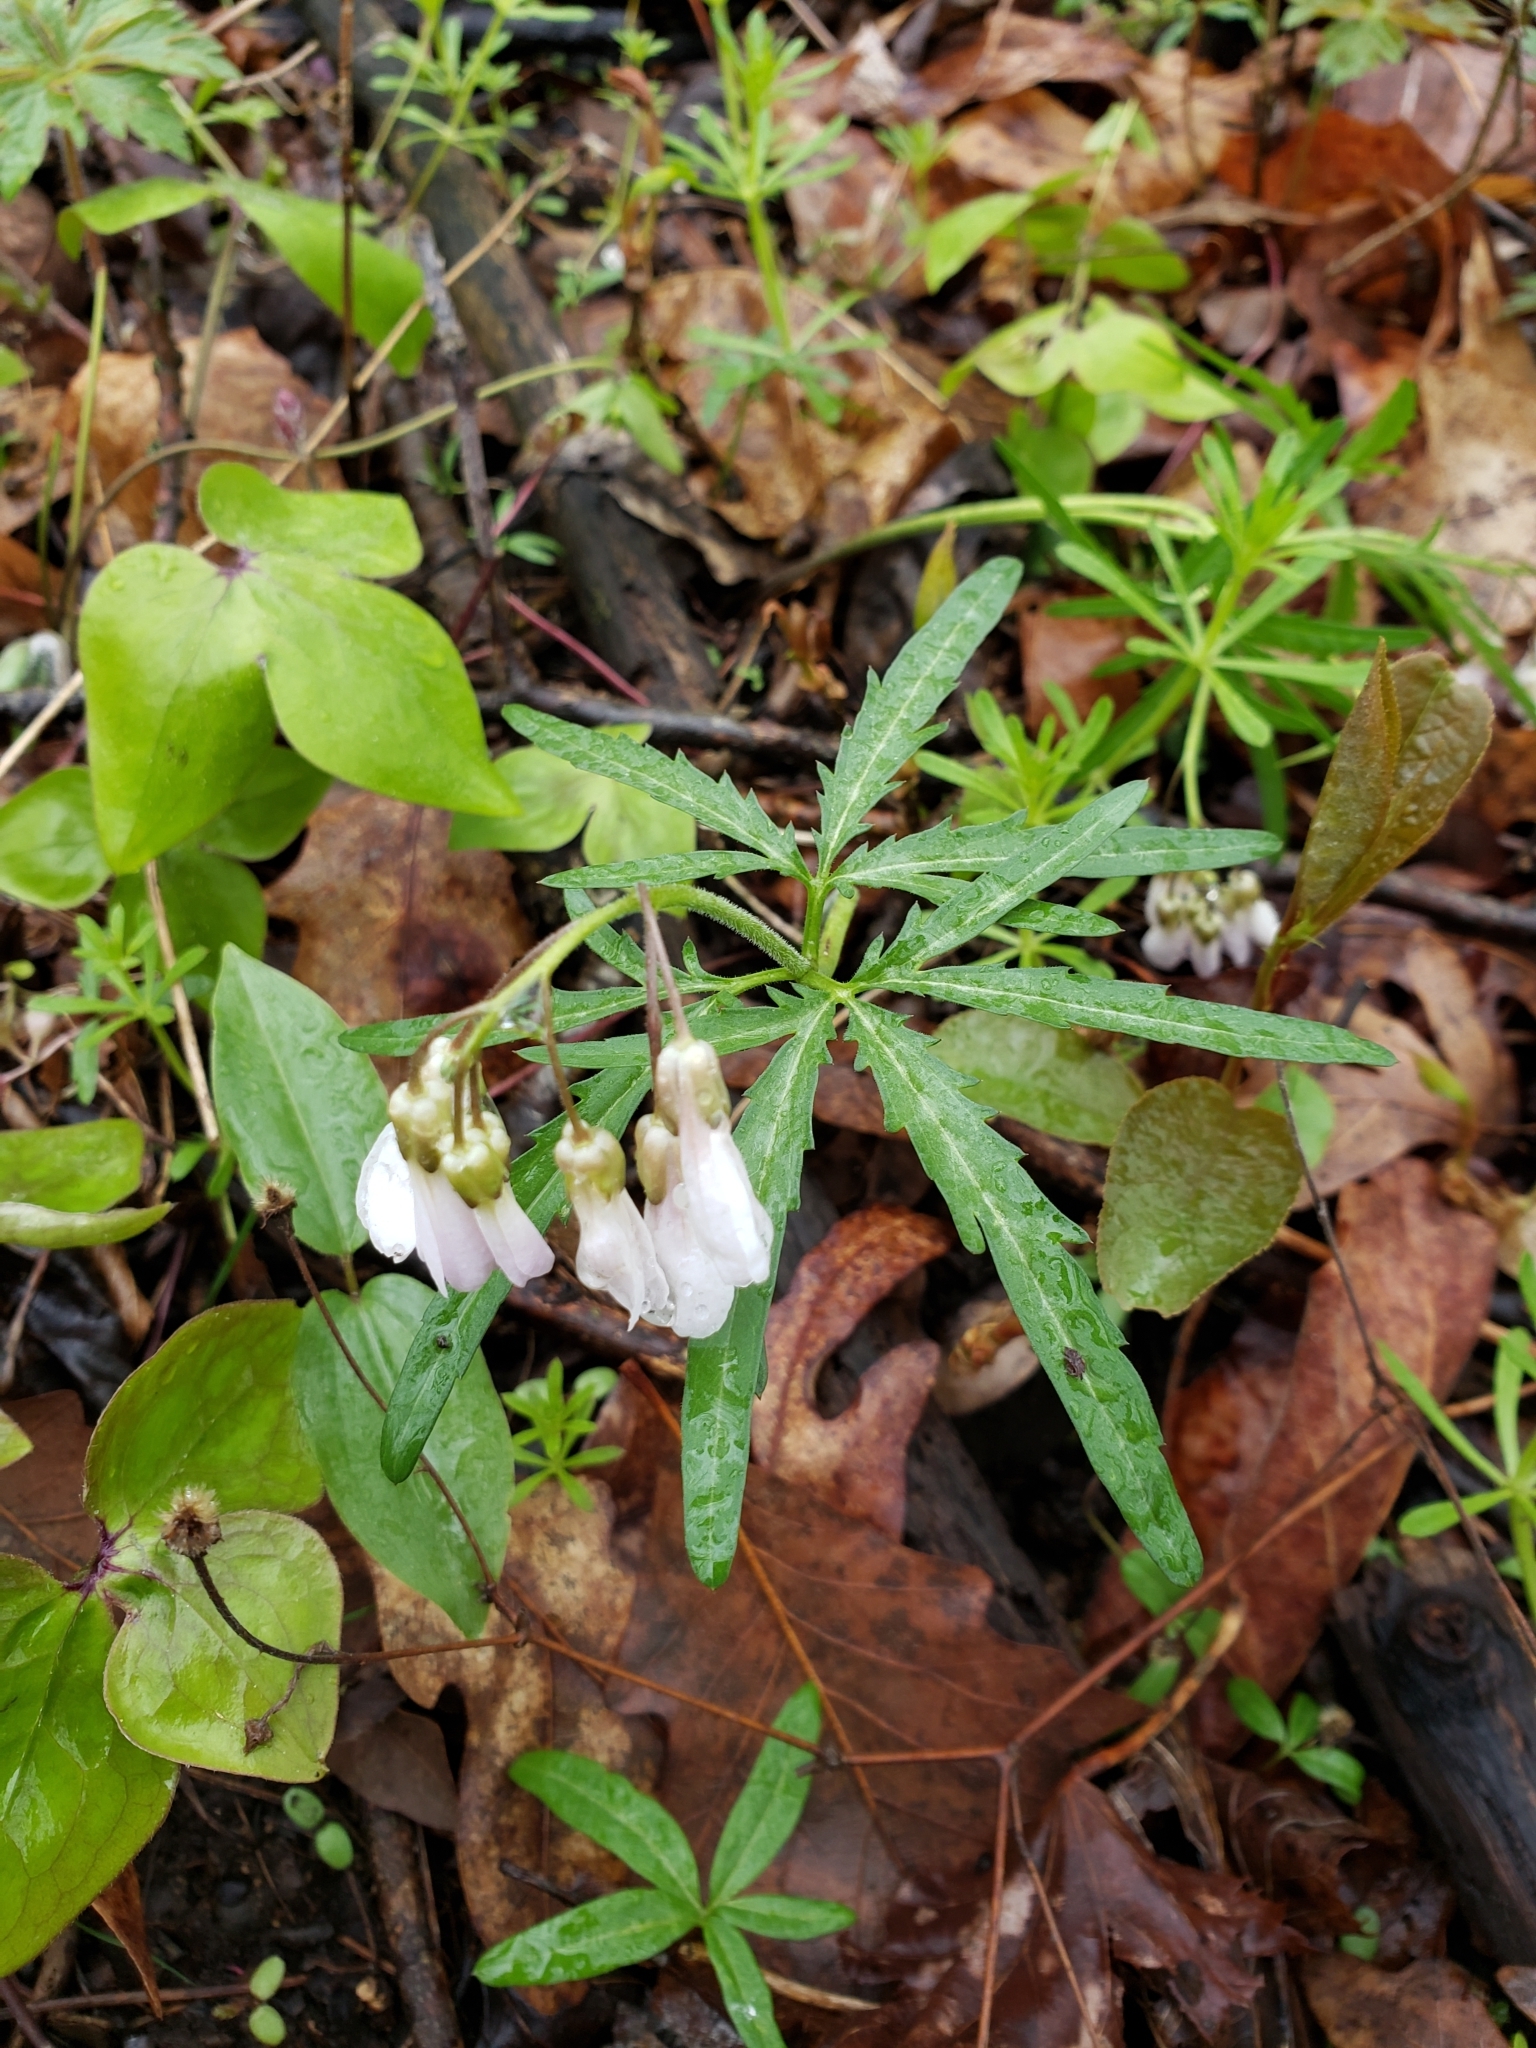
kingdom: Plantae
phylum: Tracheophyta
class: Magnoliopsida
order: Brassicales
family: Brassicaceae
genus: Cardamine
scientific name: Cardamine concatenata
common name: Cut-leaf toothcup
